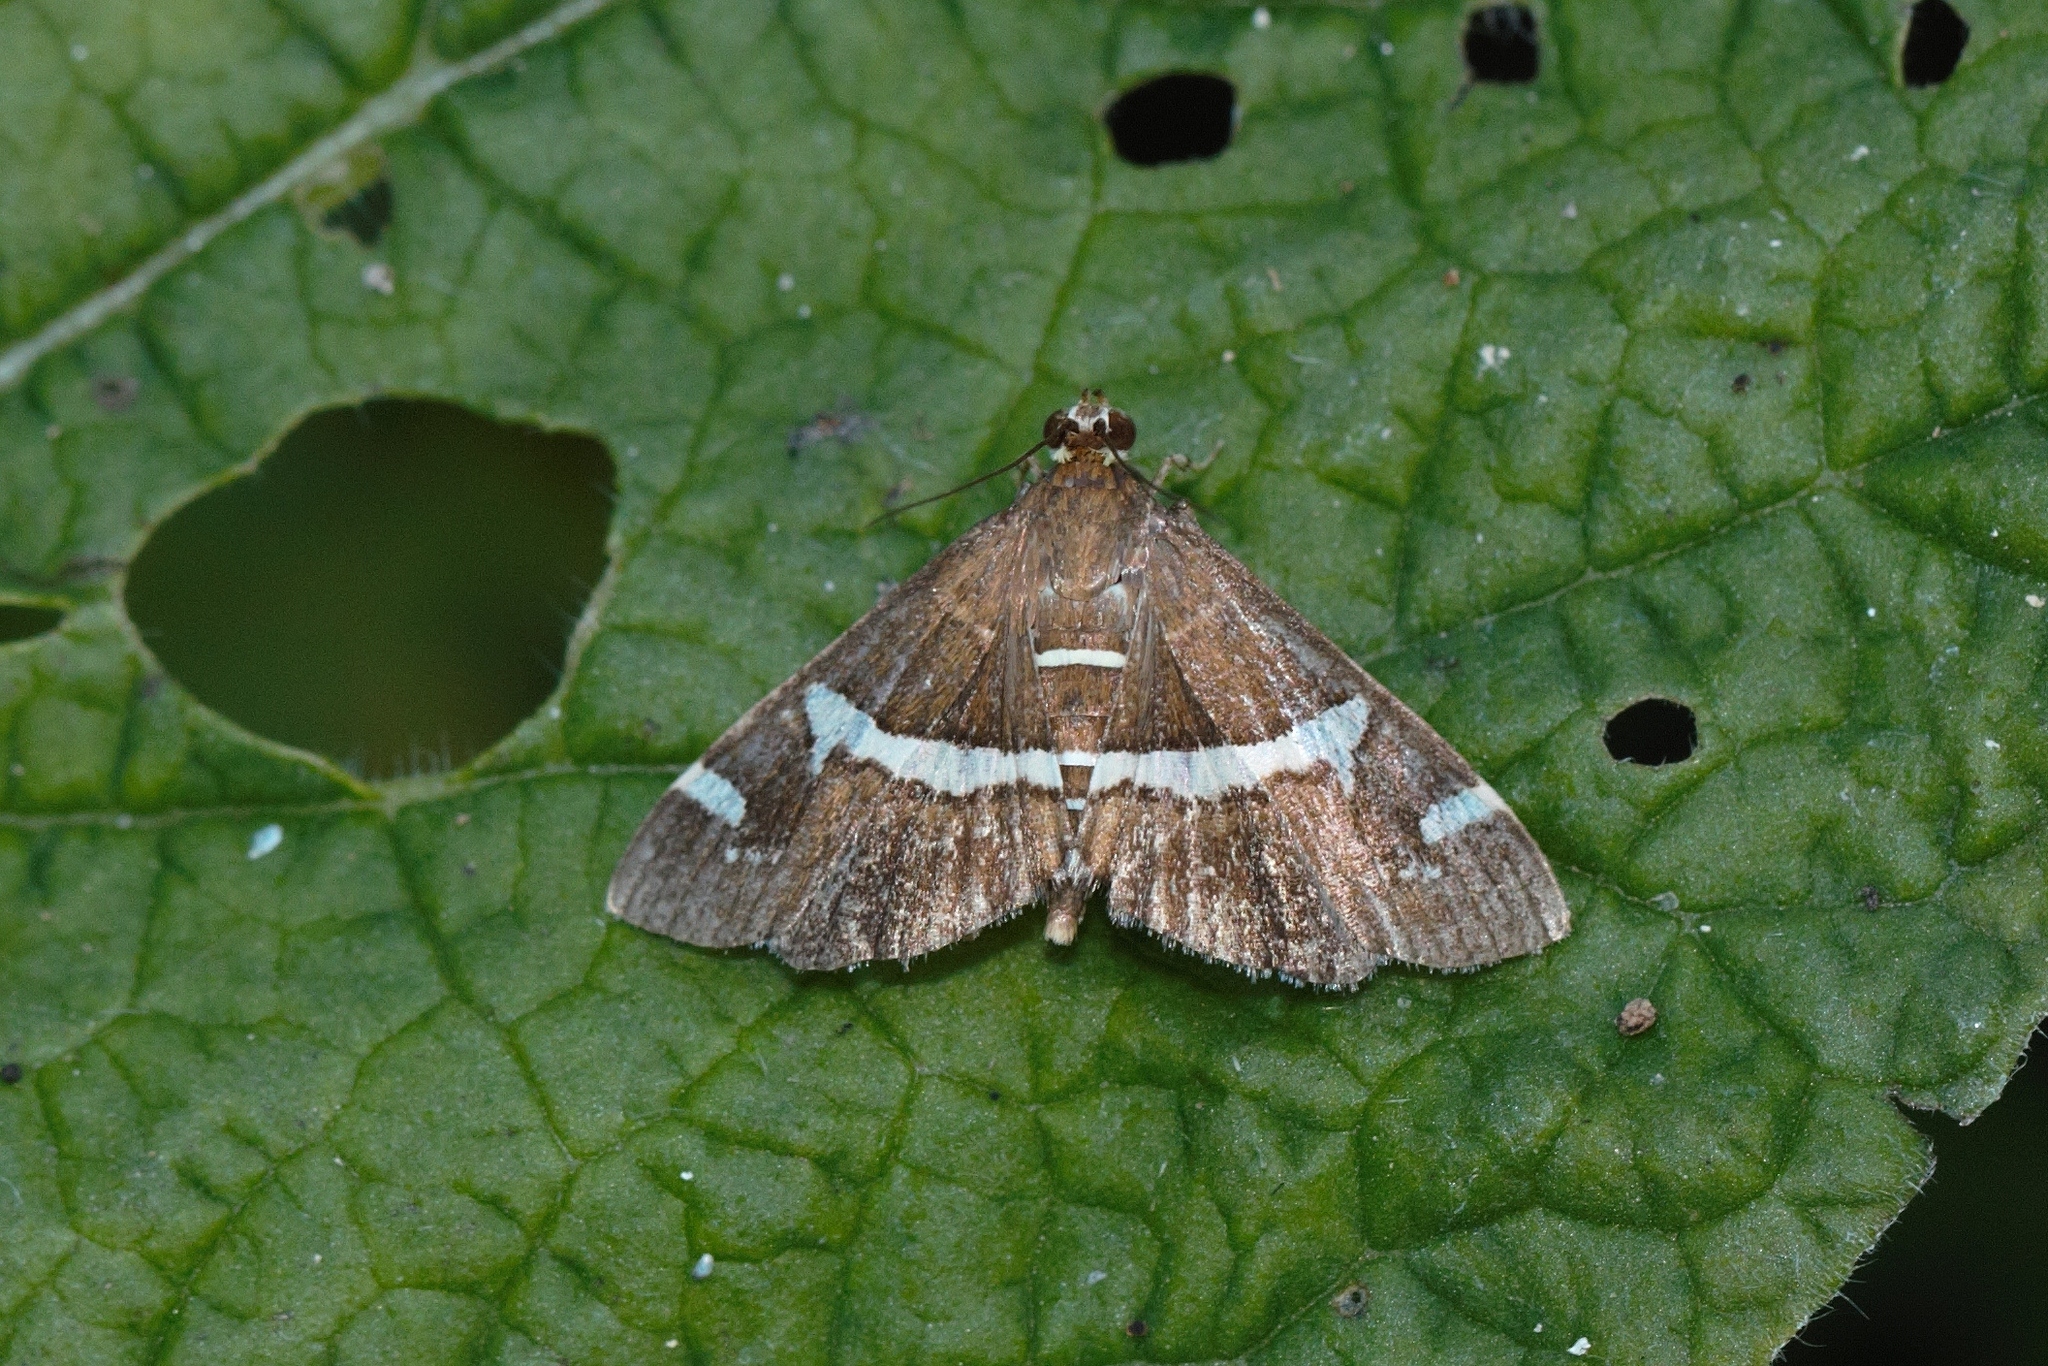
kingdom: Animalia
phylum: Arthropoda
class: Insecta
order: Lepidoptera
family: Crambidae
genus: Spoladea
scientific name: Spoladea recurvalis
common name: Beet webworm moth
